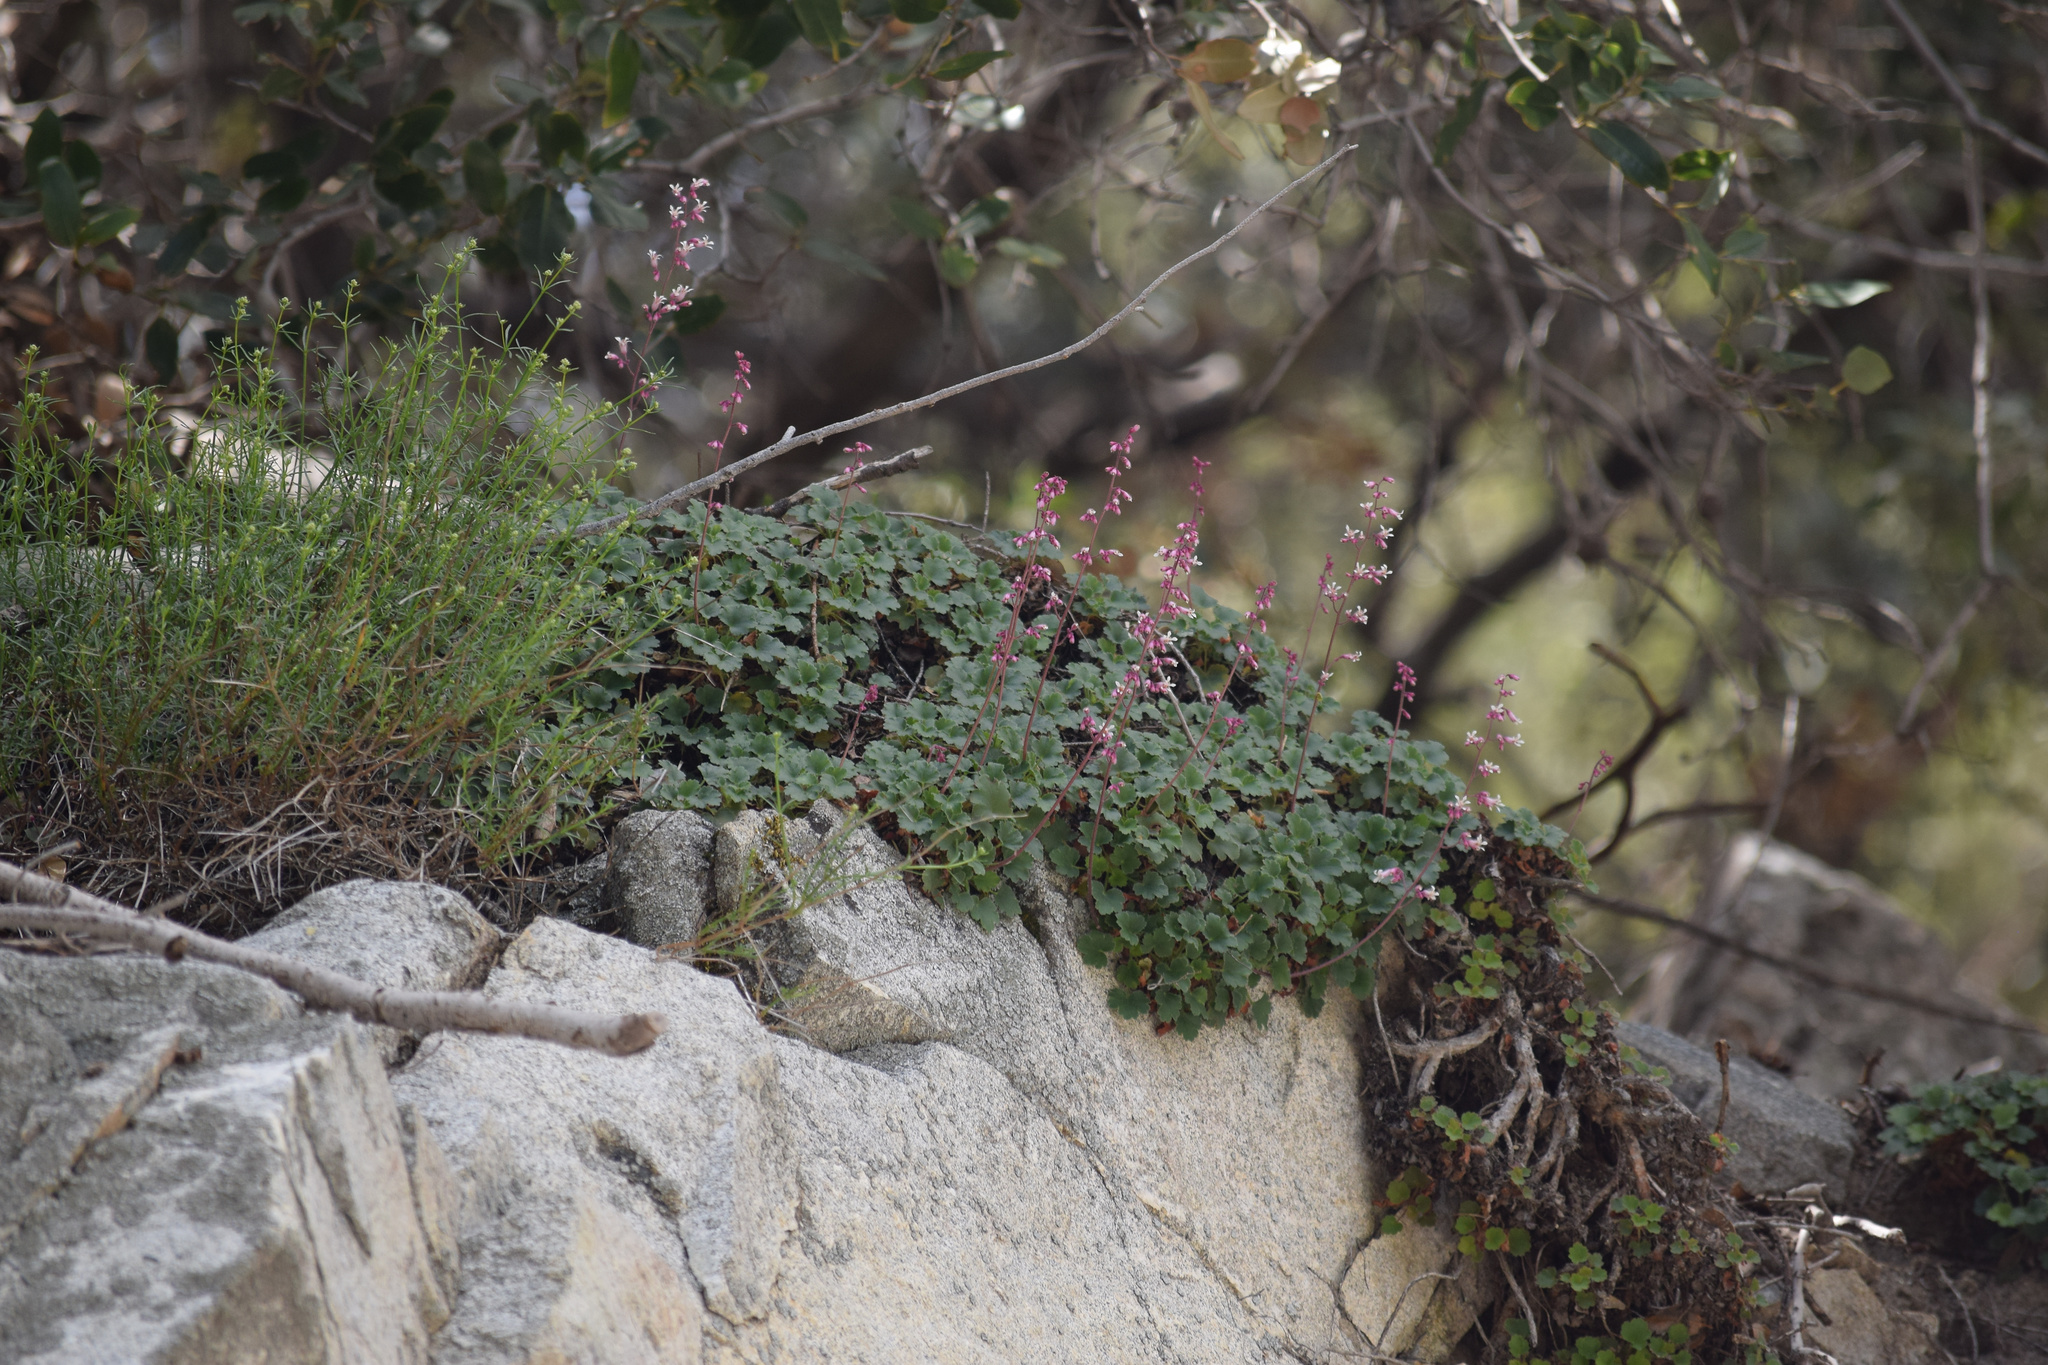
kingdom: Plantae
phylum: Tracheophyta
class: Magnoliopsida
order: Saxifragales
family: Saxifragaceae
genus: Heuchera
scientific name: Heuchera elegans
